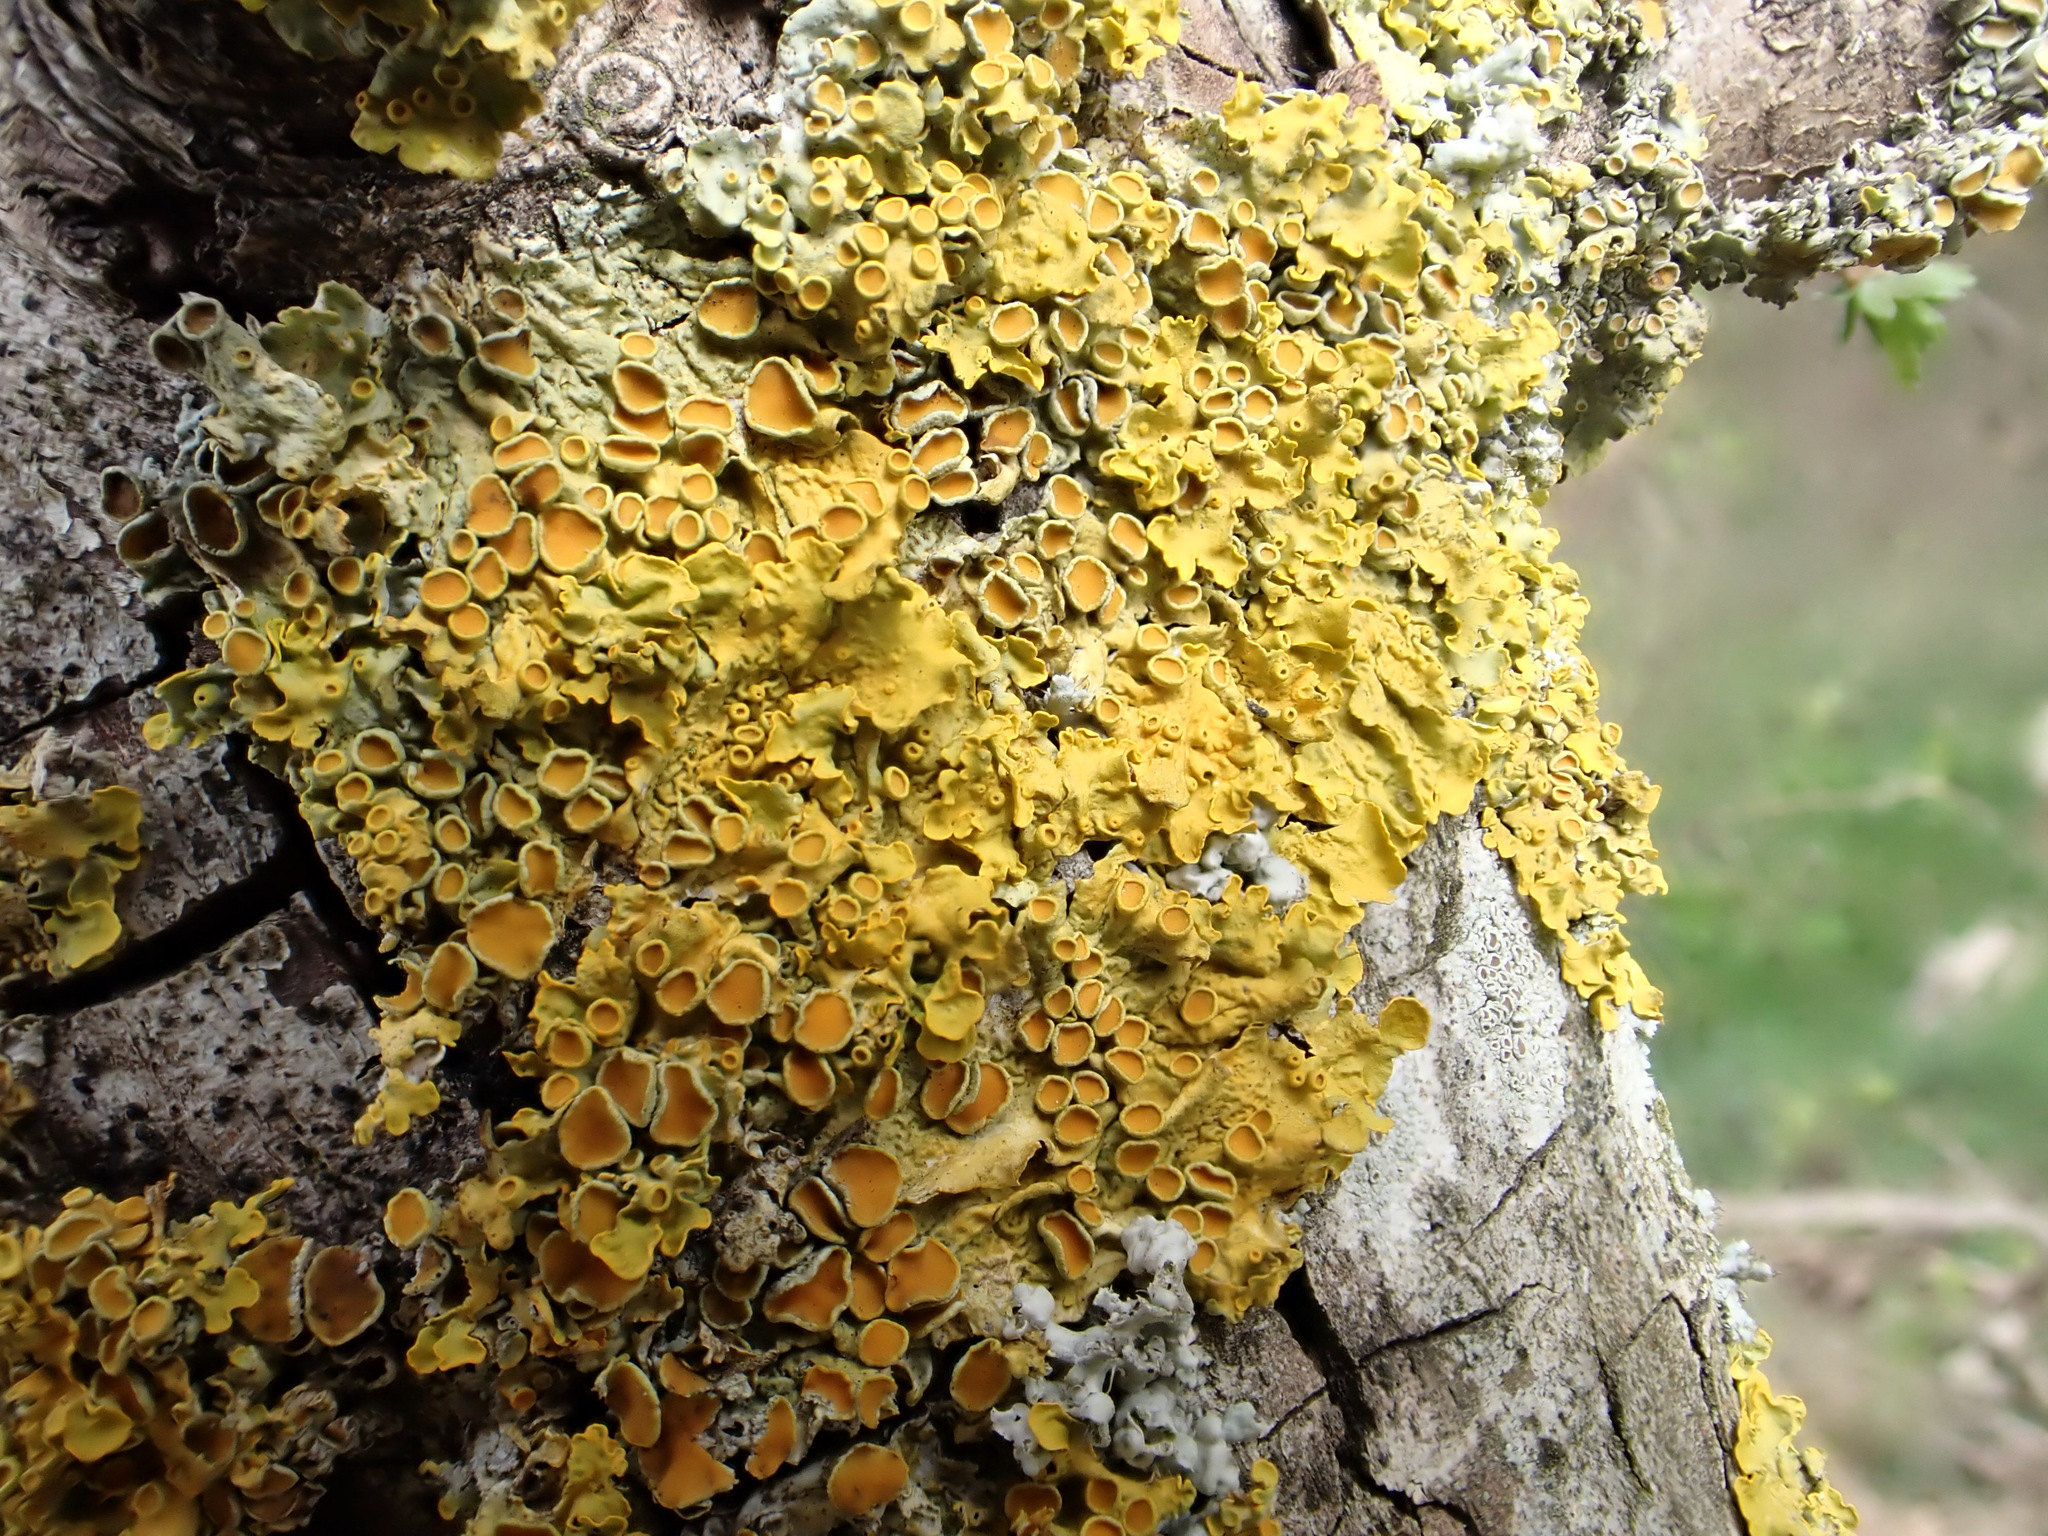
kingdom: Fungi
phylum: Ascomycota
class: Lecanoromycetes
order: Teloschistales
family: Teloschistaceae
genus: Xanthoria
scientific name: Xanthoria parietina
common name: Common orange lichen
